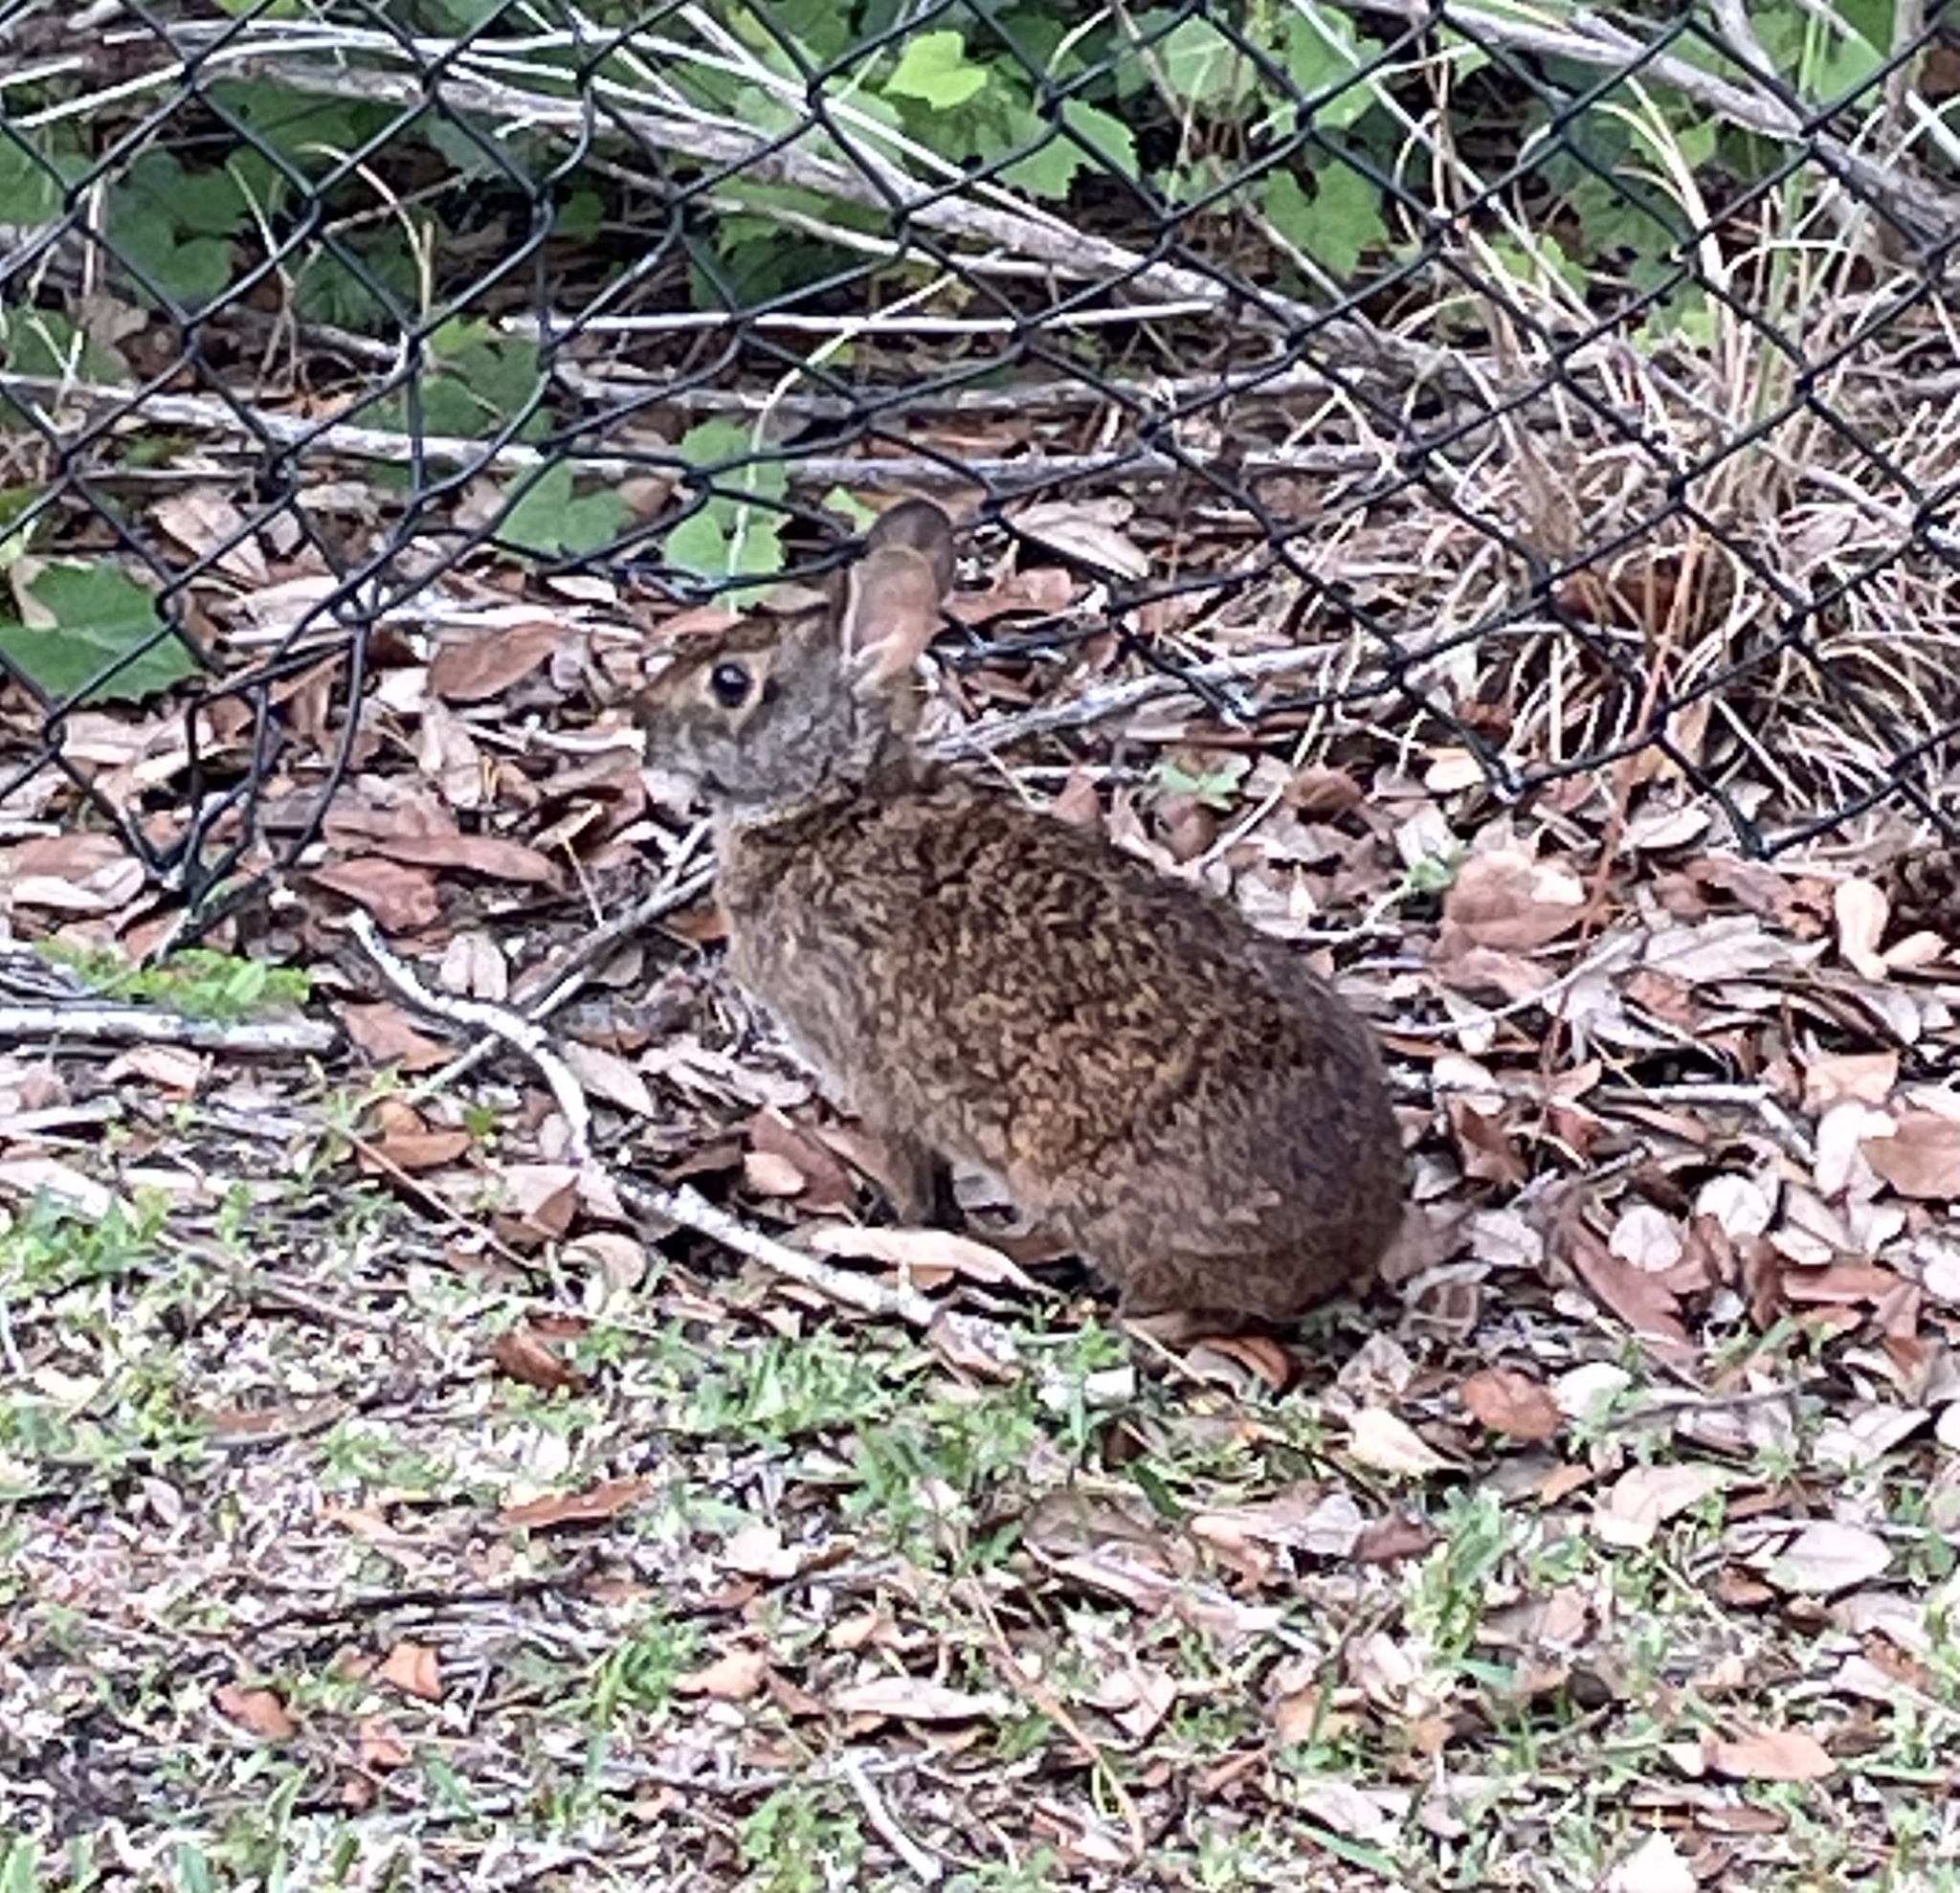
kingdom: Animalia
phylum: Chordata
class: Mammalia
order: Lagomorpha
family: Leporidae
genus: Sylvilagus
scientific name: Sylvilagus palustris
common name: Marsh rabbit
